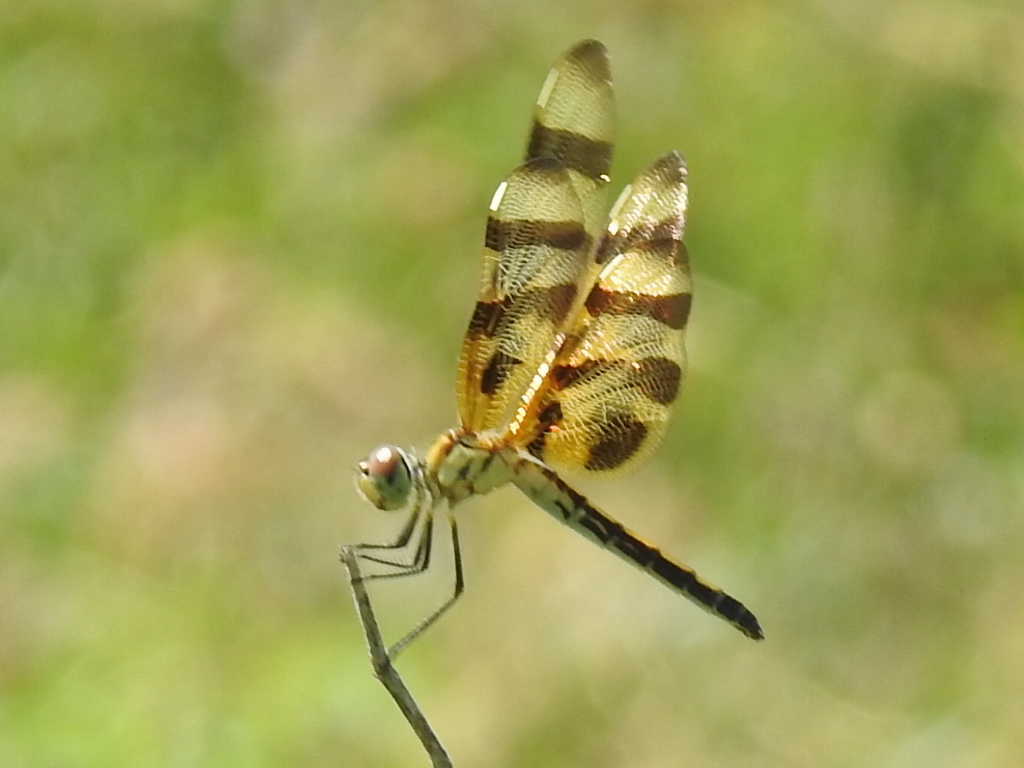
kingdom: Animalia
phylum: Arthropoda
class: Insecta
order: Odonata
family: Libellulidae
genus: Celithemis
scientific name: Celithemis eponina
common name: Halloween pennant
